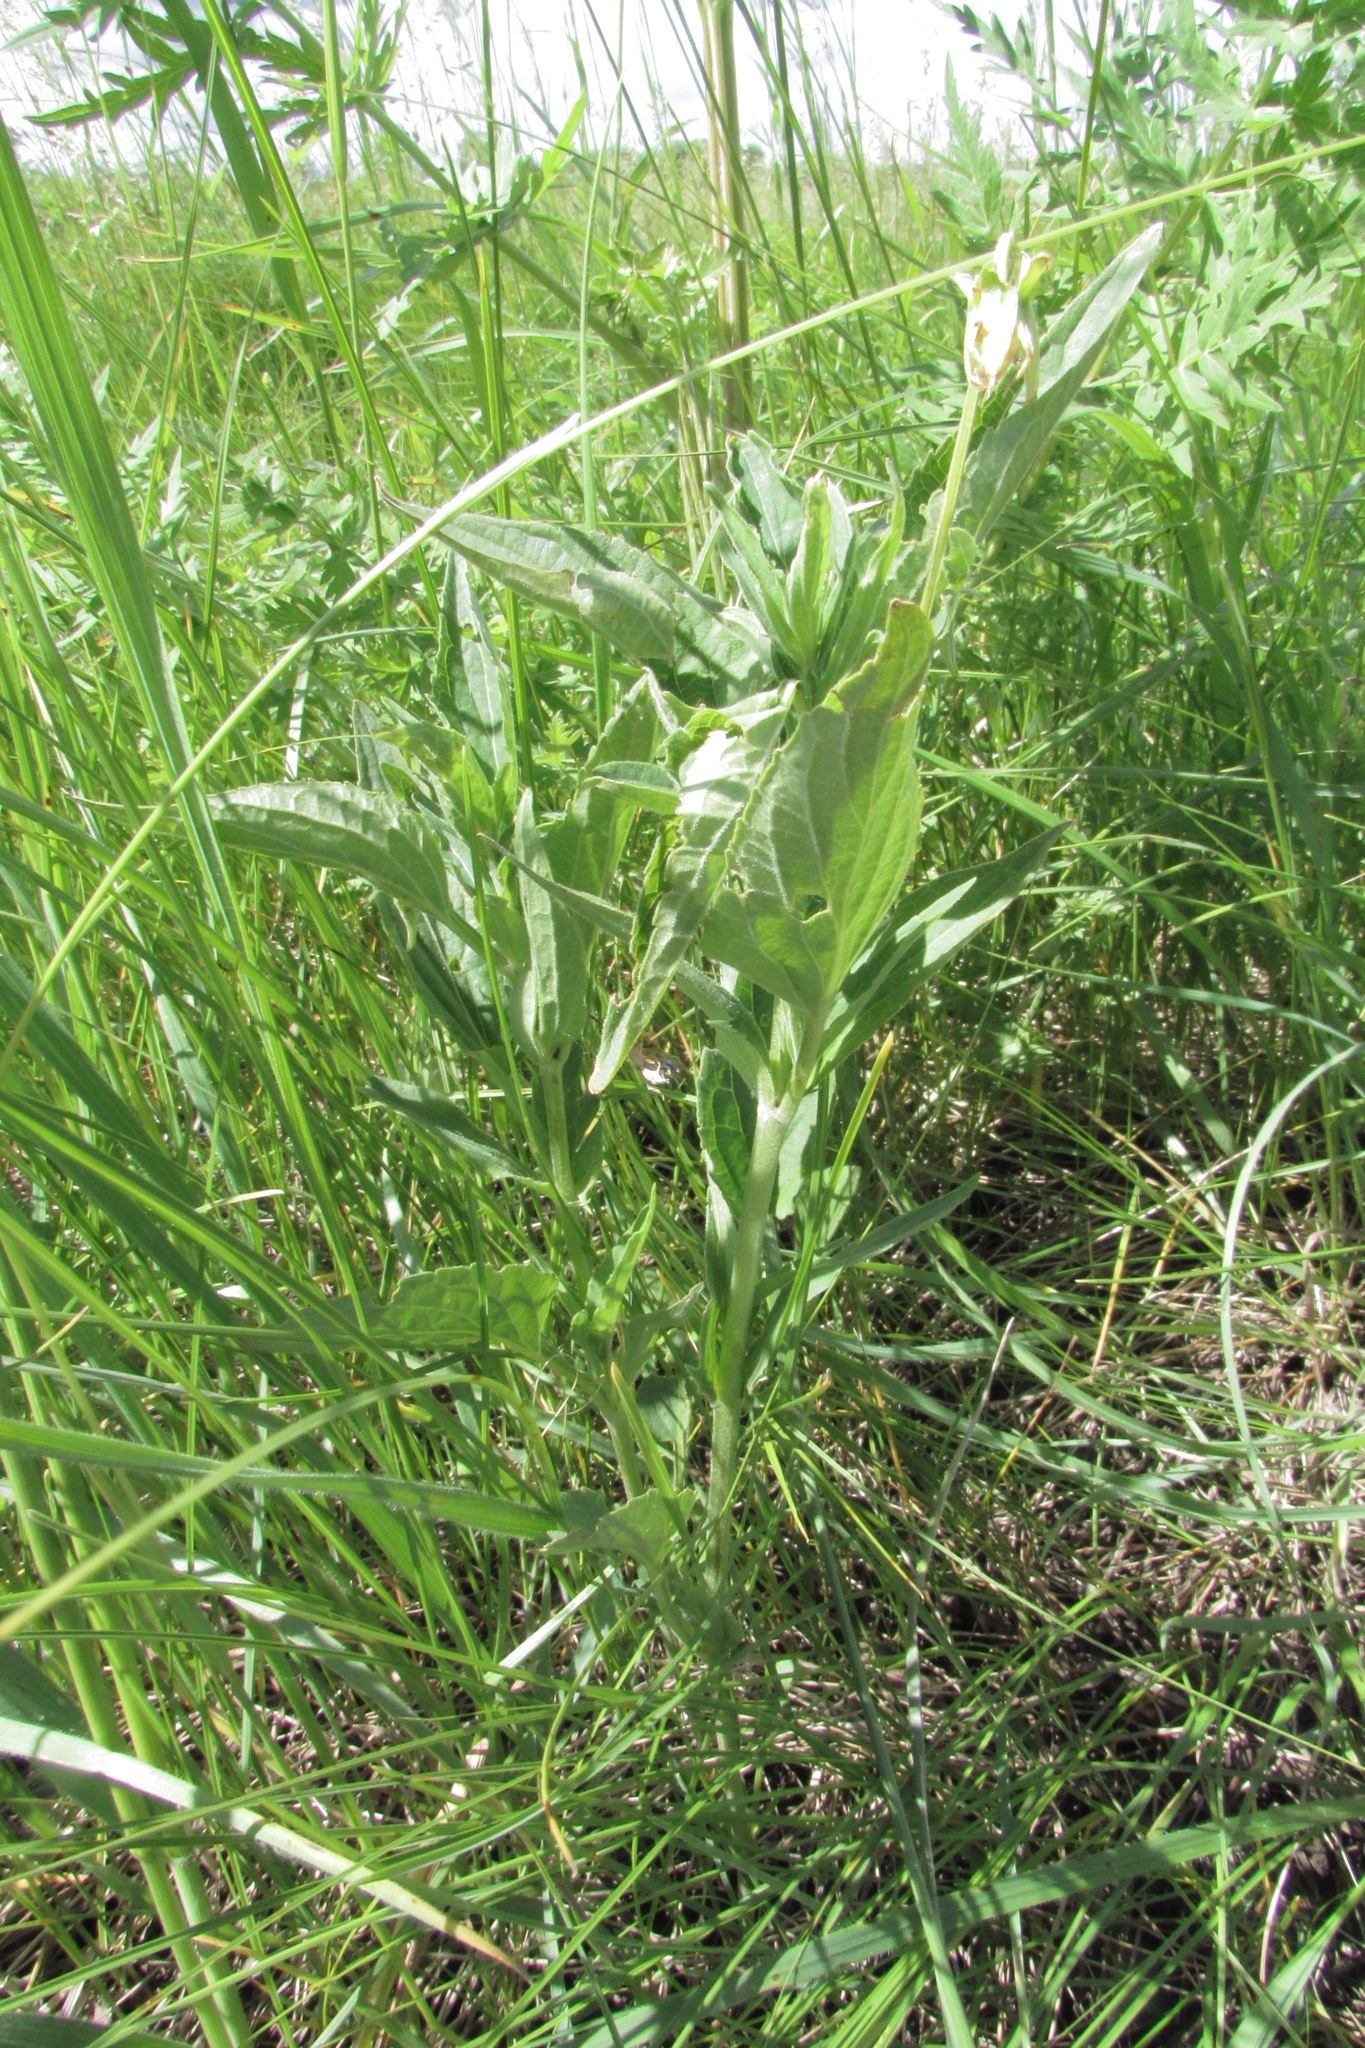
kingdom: Plantae
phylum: Tracheophyta
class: Magnoliopsida
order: Malpighiales
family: Violaceae
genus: Viola
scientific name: Viola elatior
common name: Tall violet
